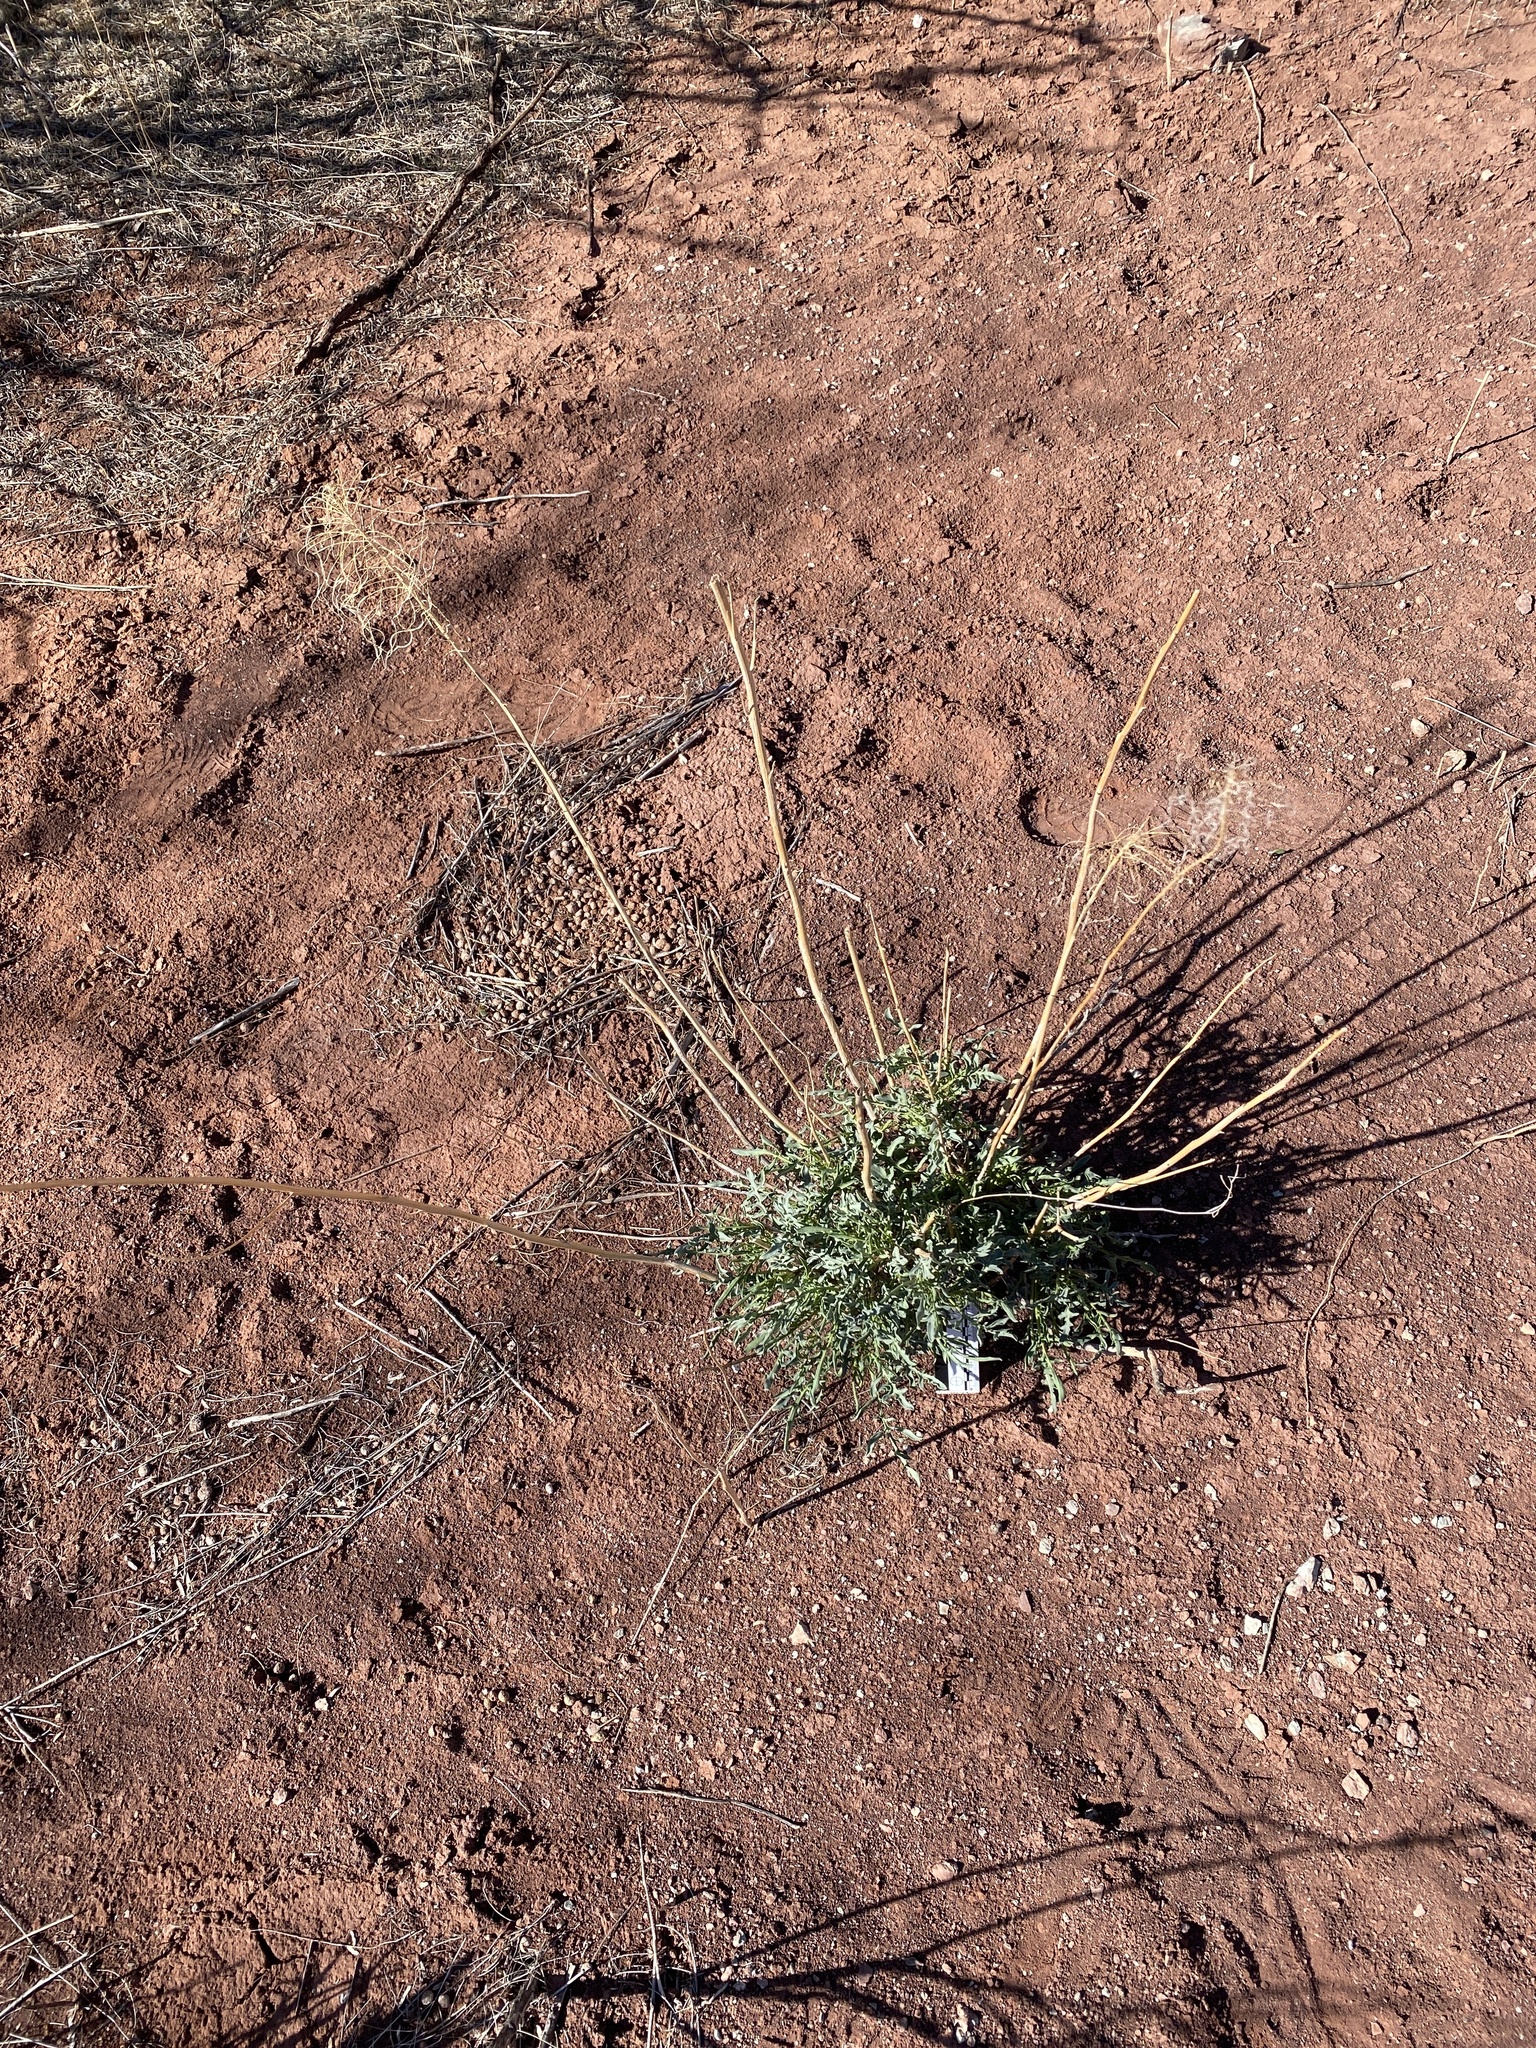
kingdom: Plantae
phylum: Tracheophyta
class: Magnoliopsida
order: Brassicales
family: Brassicaceae
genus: Stanleya
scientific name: Stanleya pinnata
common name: Prince's-plume
